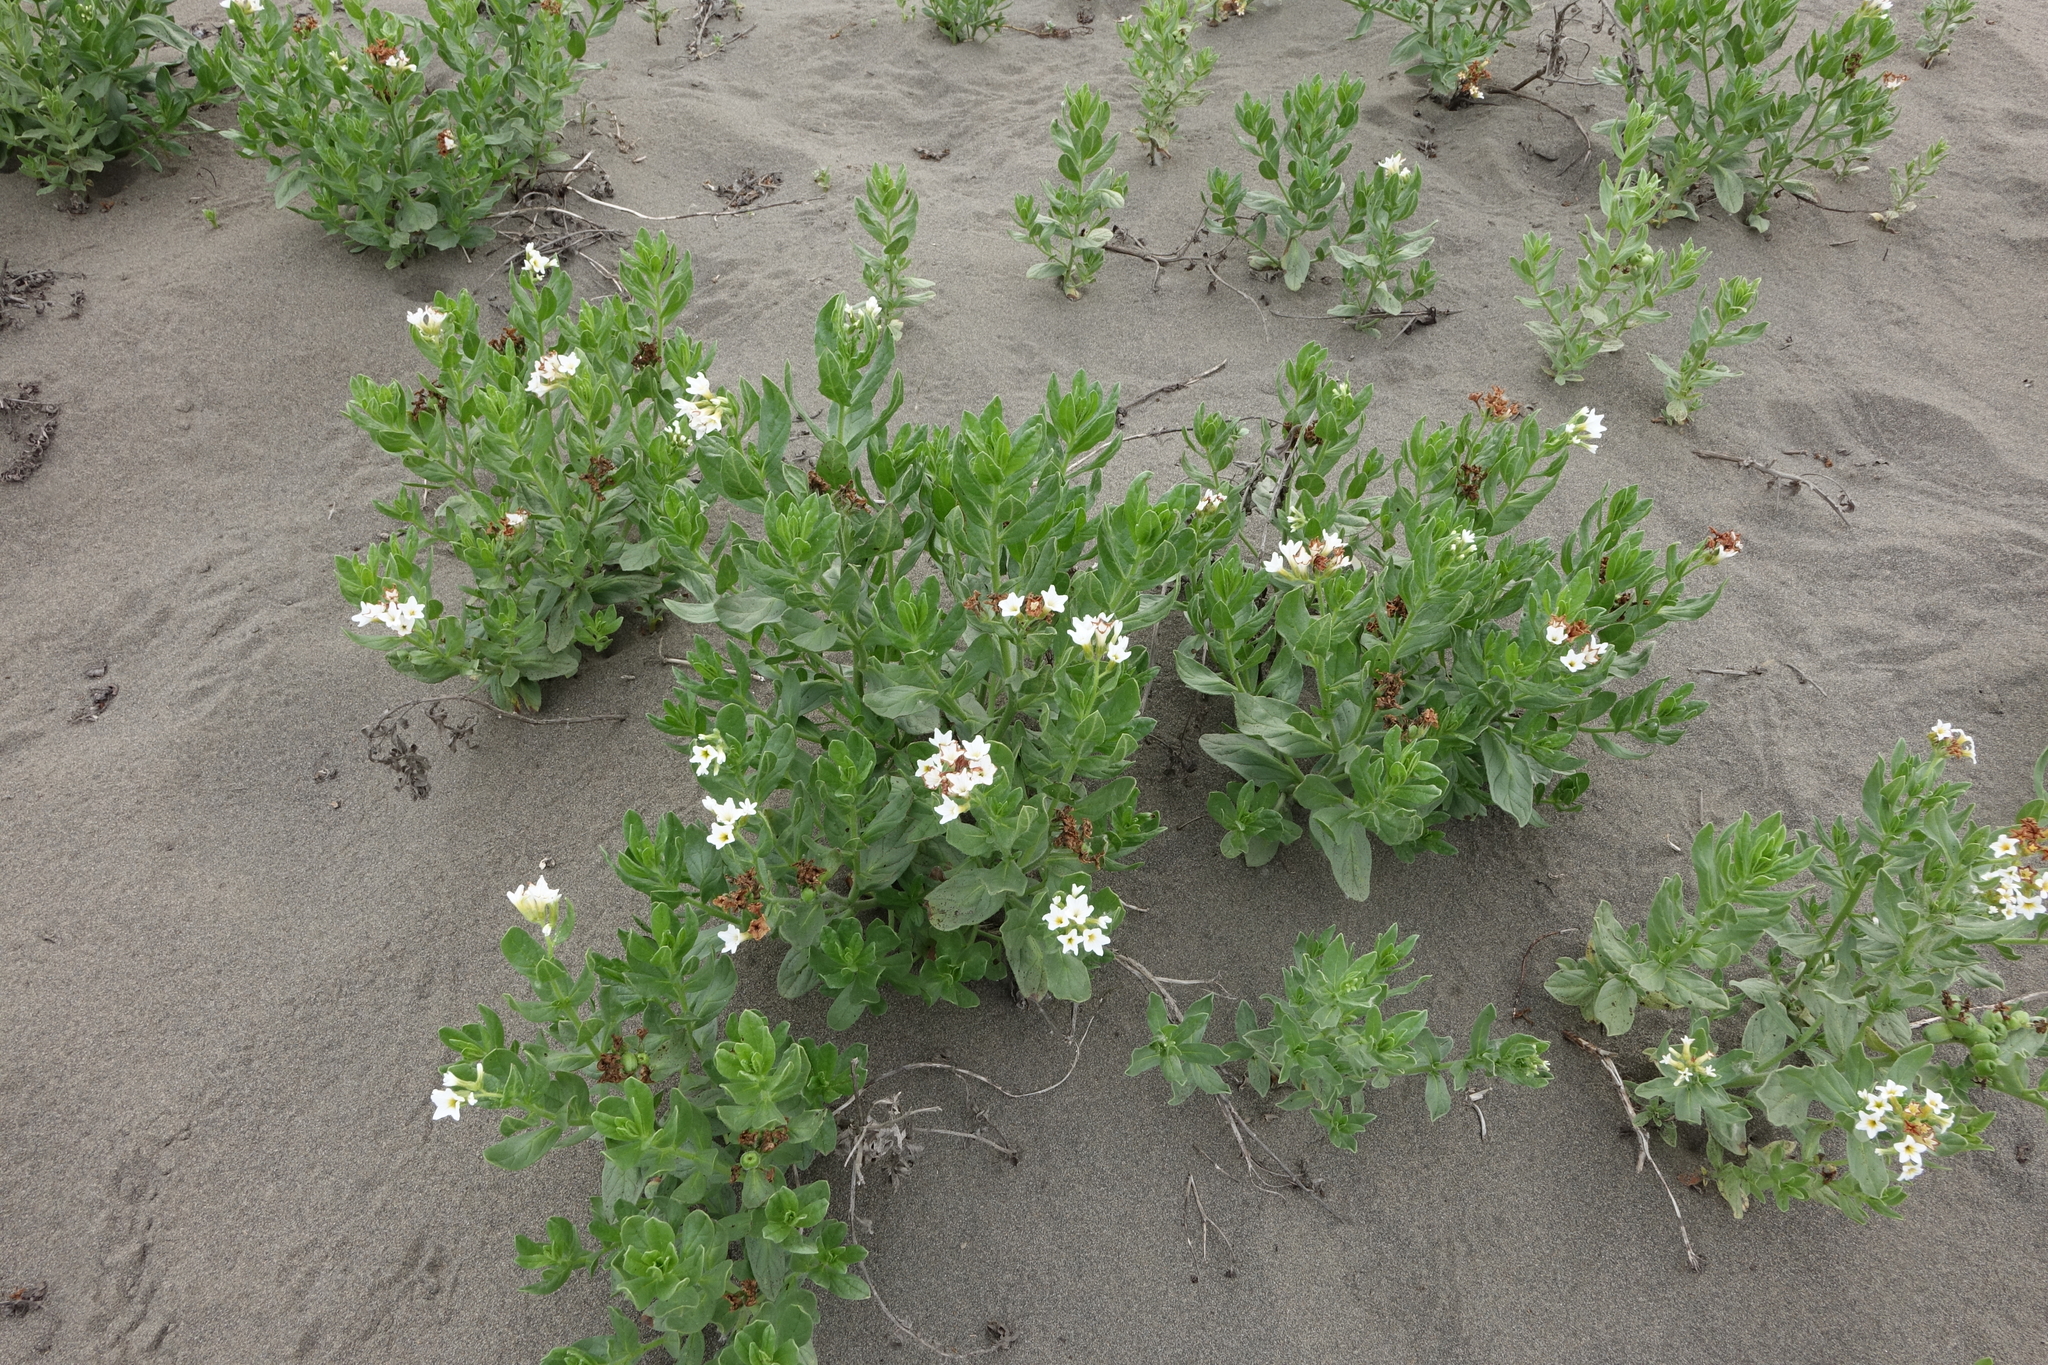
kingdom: Plantae
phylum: Tracheophyta
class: Magnoliopsida
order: Boraginales
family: Heliotropiaceae
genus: Tournefortia
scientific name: Tournefortia sibirica
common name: Siberian sea rosemary
